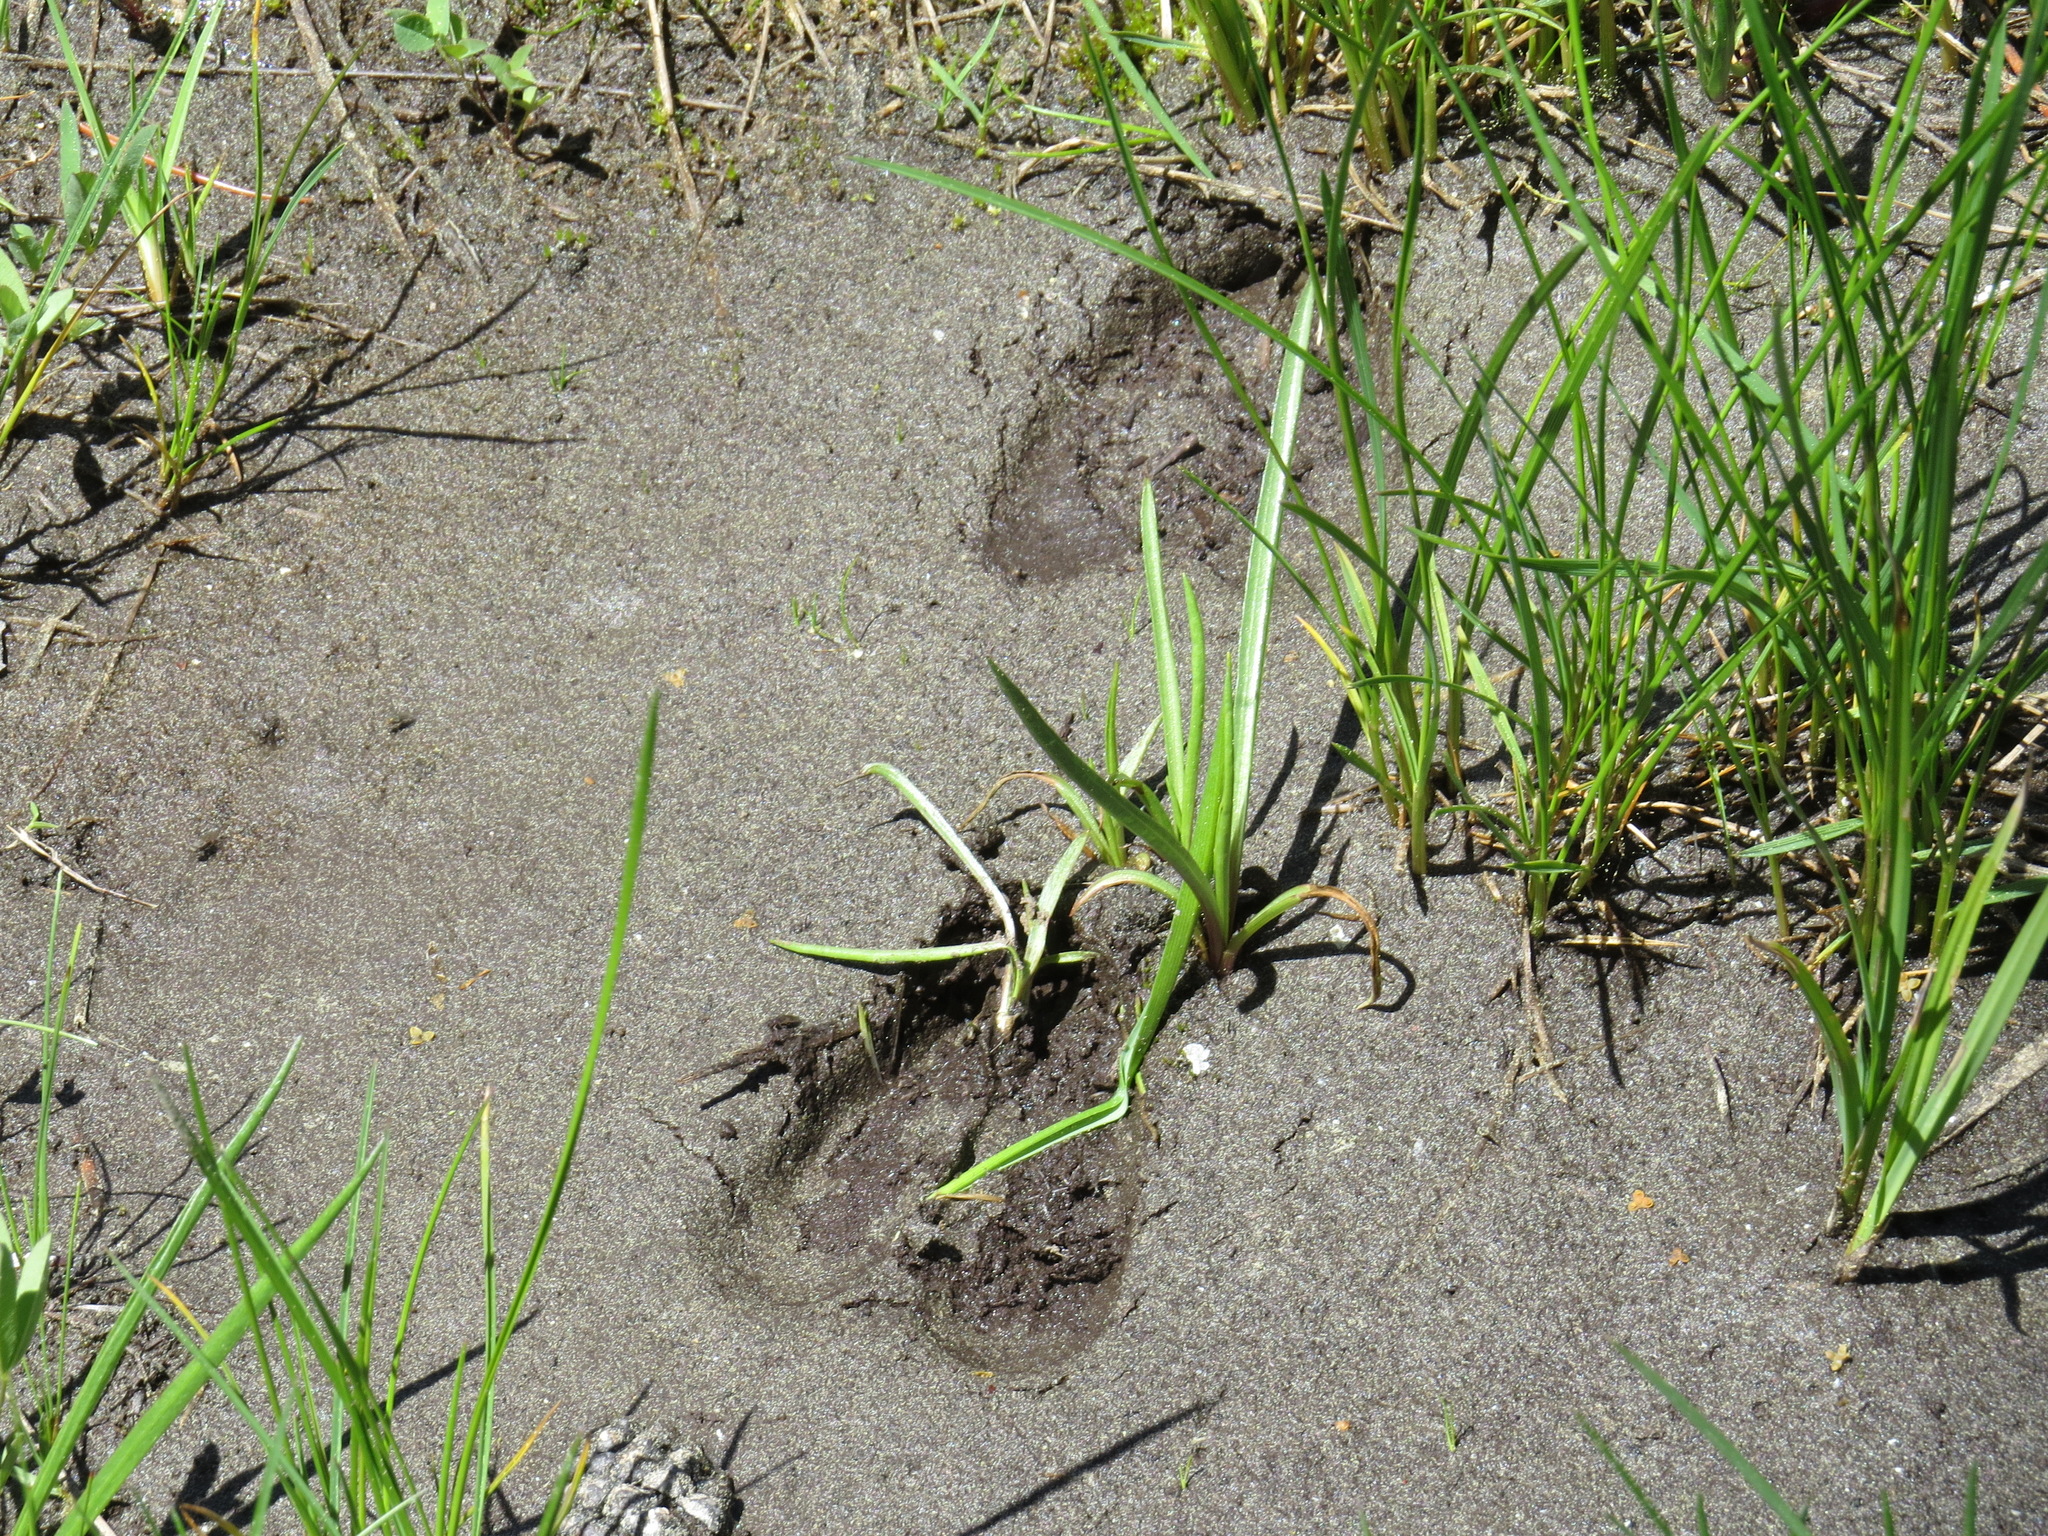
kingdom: Animalia
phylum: Chordata
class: Mammalia
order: Artiodactyla
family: Cervidae
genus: Odocoileus
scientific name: Odocoileus hemionus
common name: Mule deer
